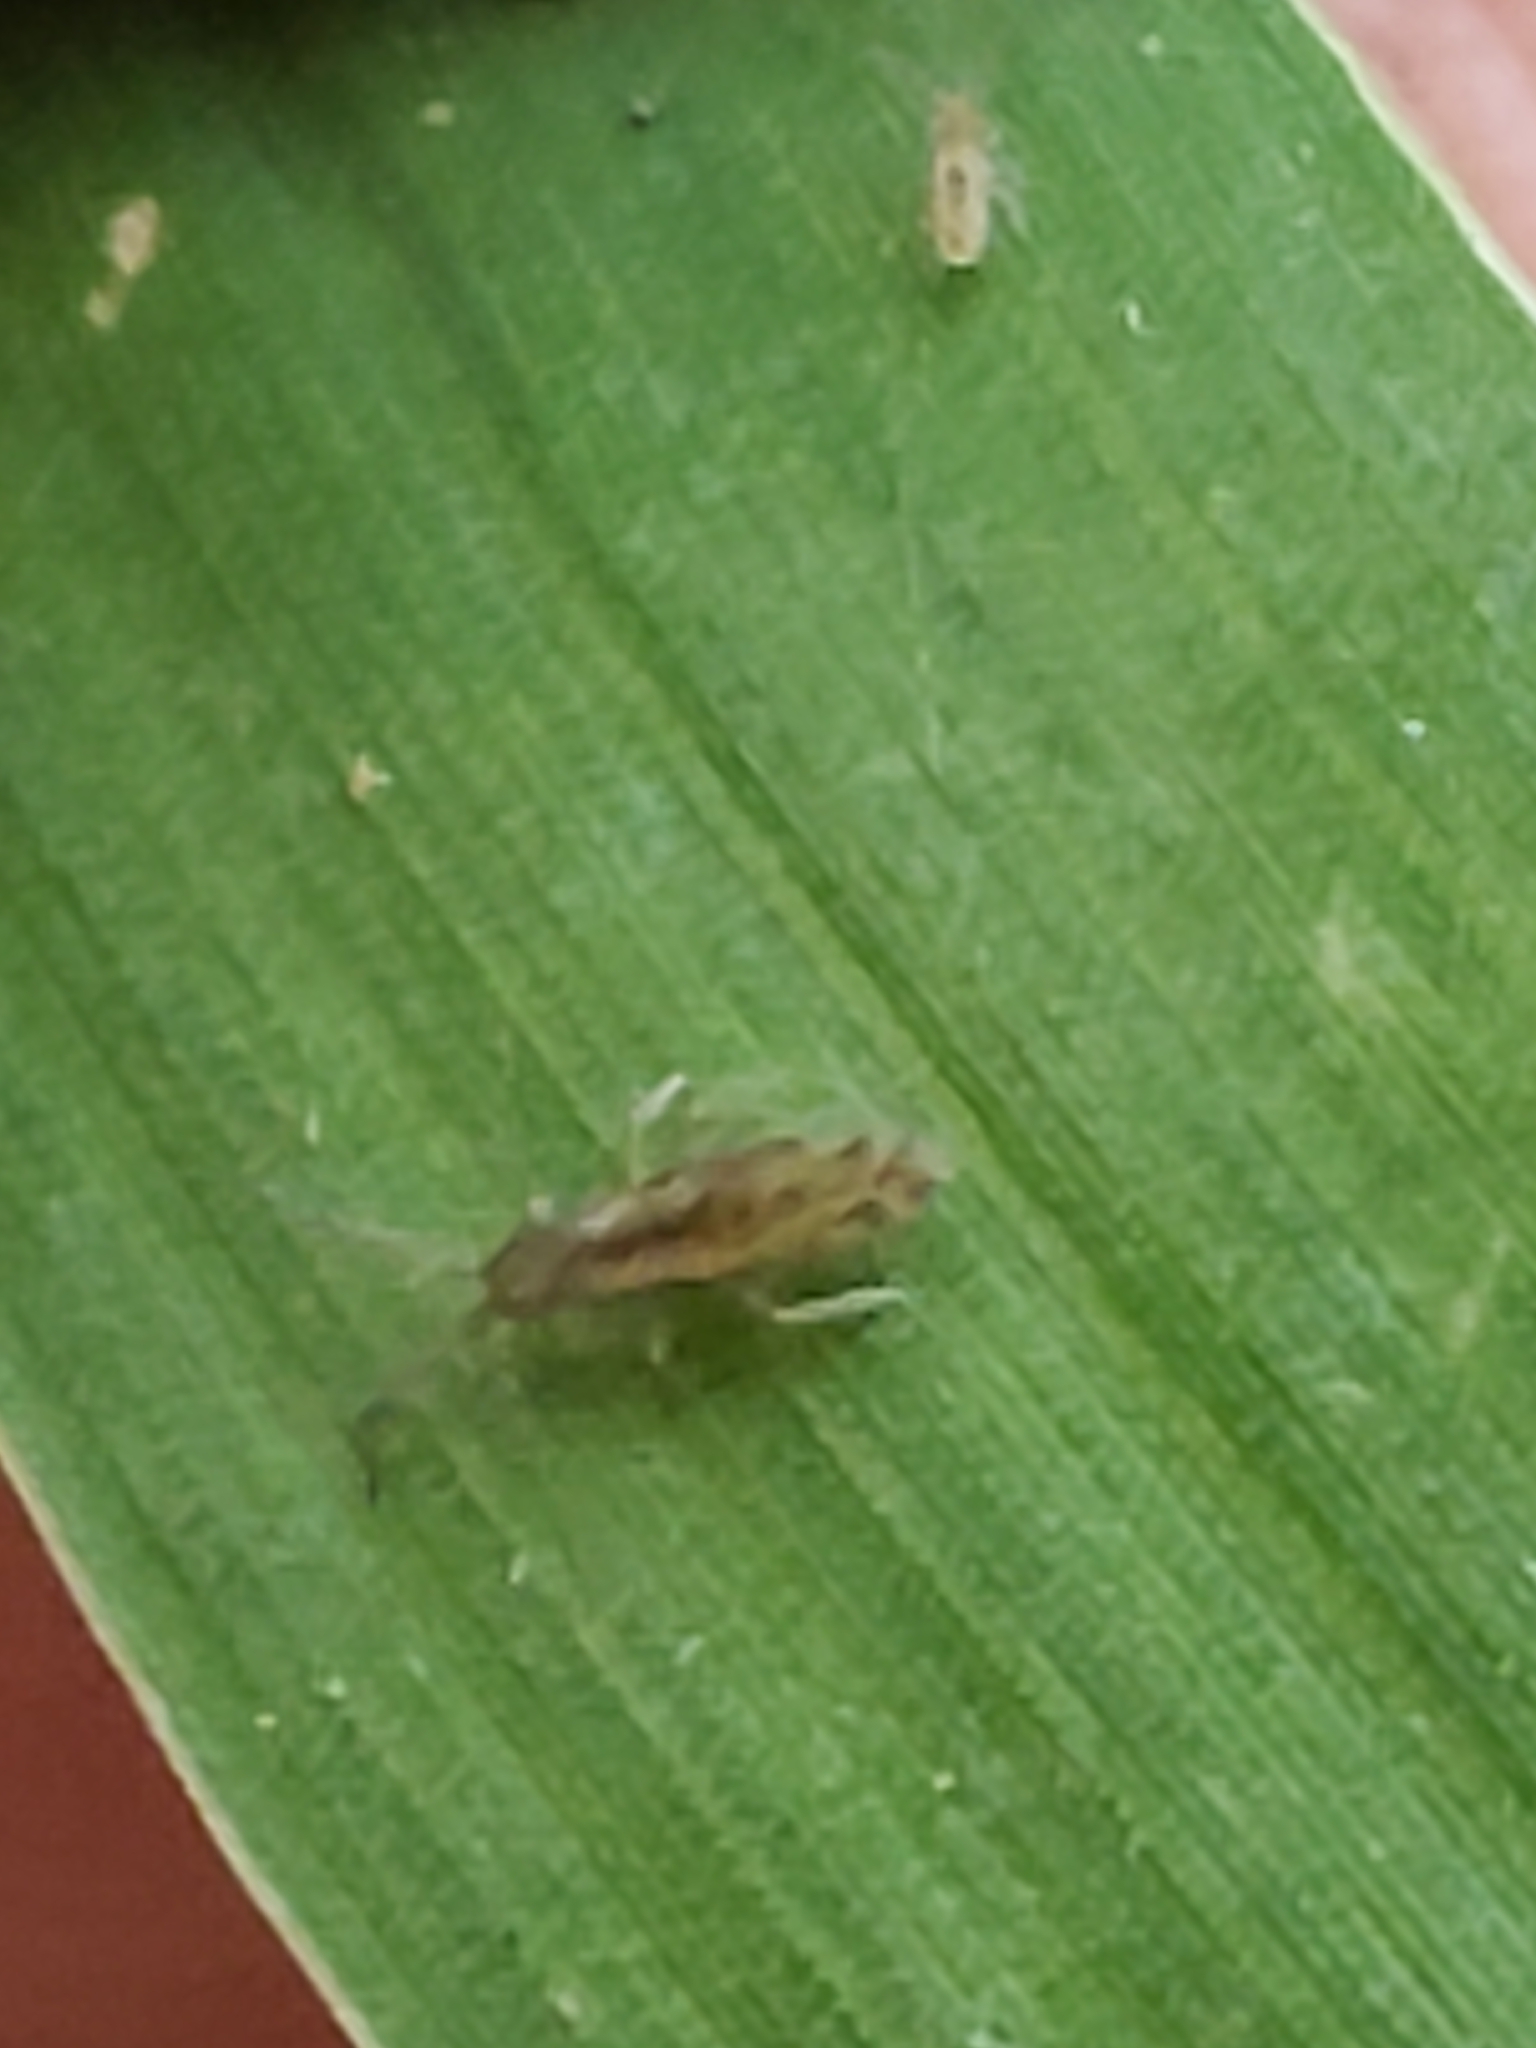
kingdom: Animalia
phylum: Arthropoda
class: Collembola
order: Entomobryomorpha
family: Entomobryidae
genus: Homidia
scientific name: Homidia socia
